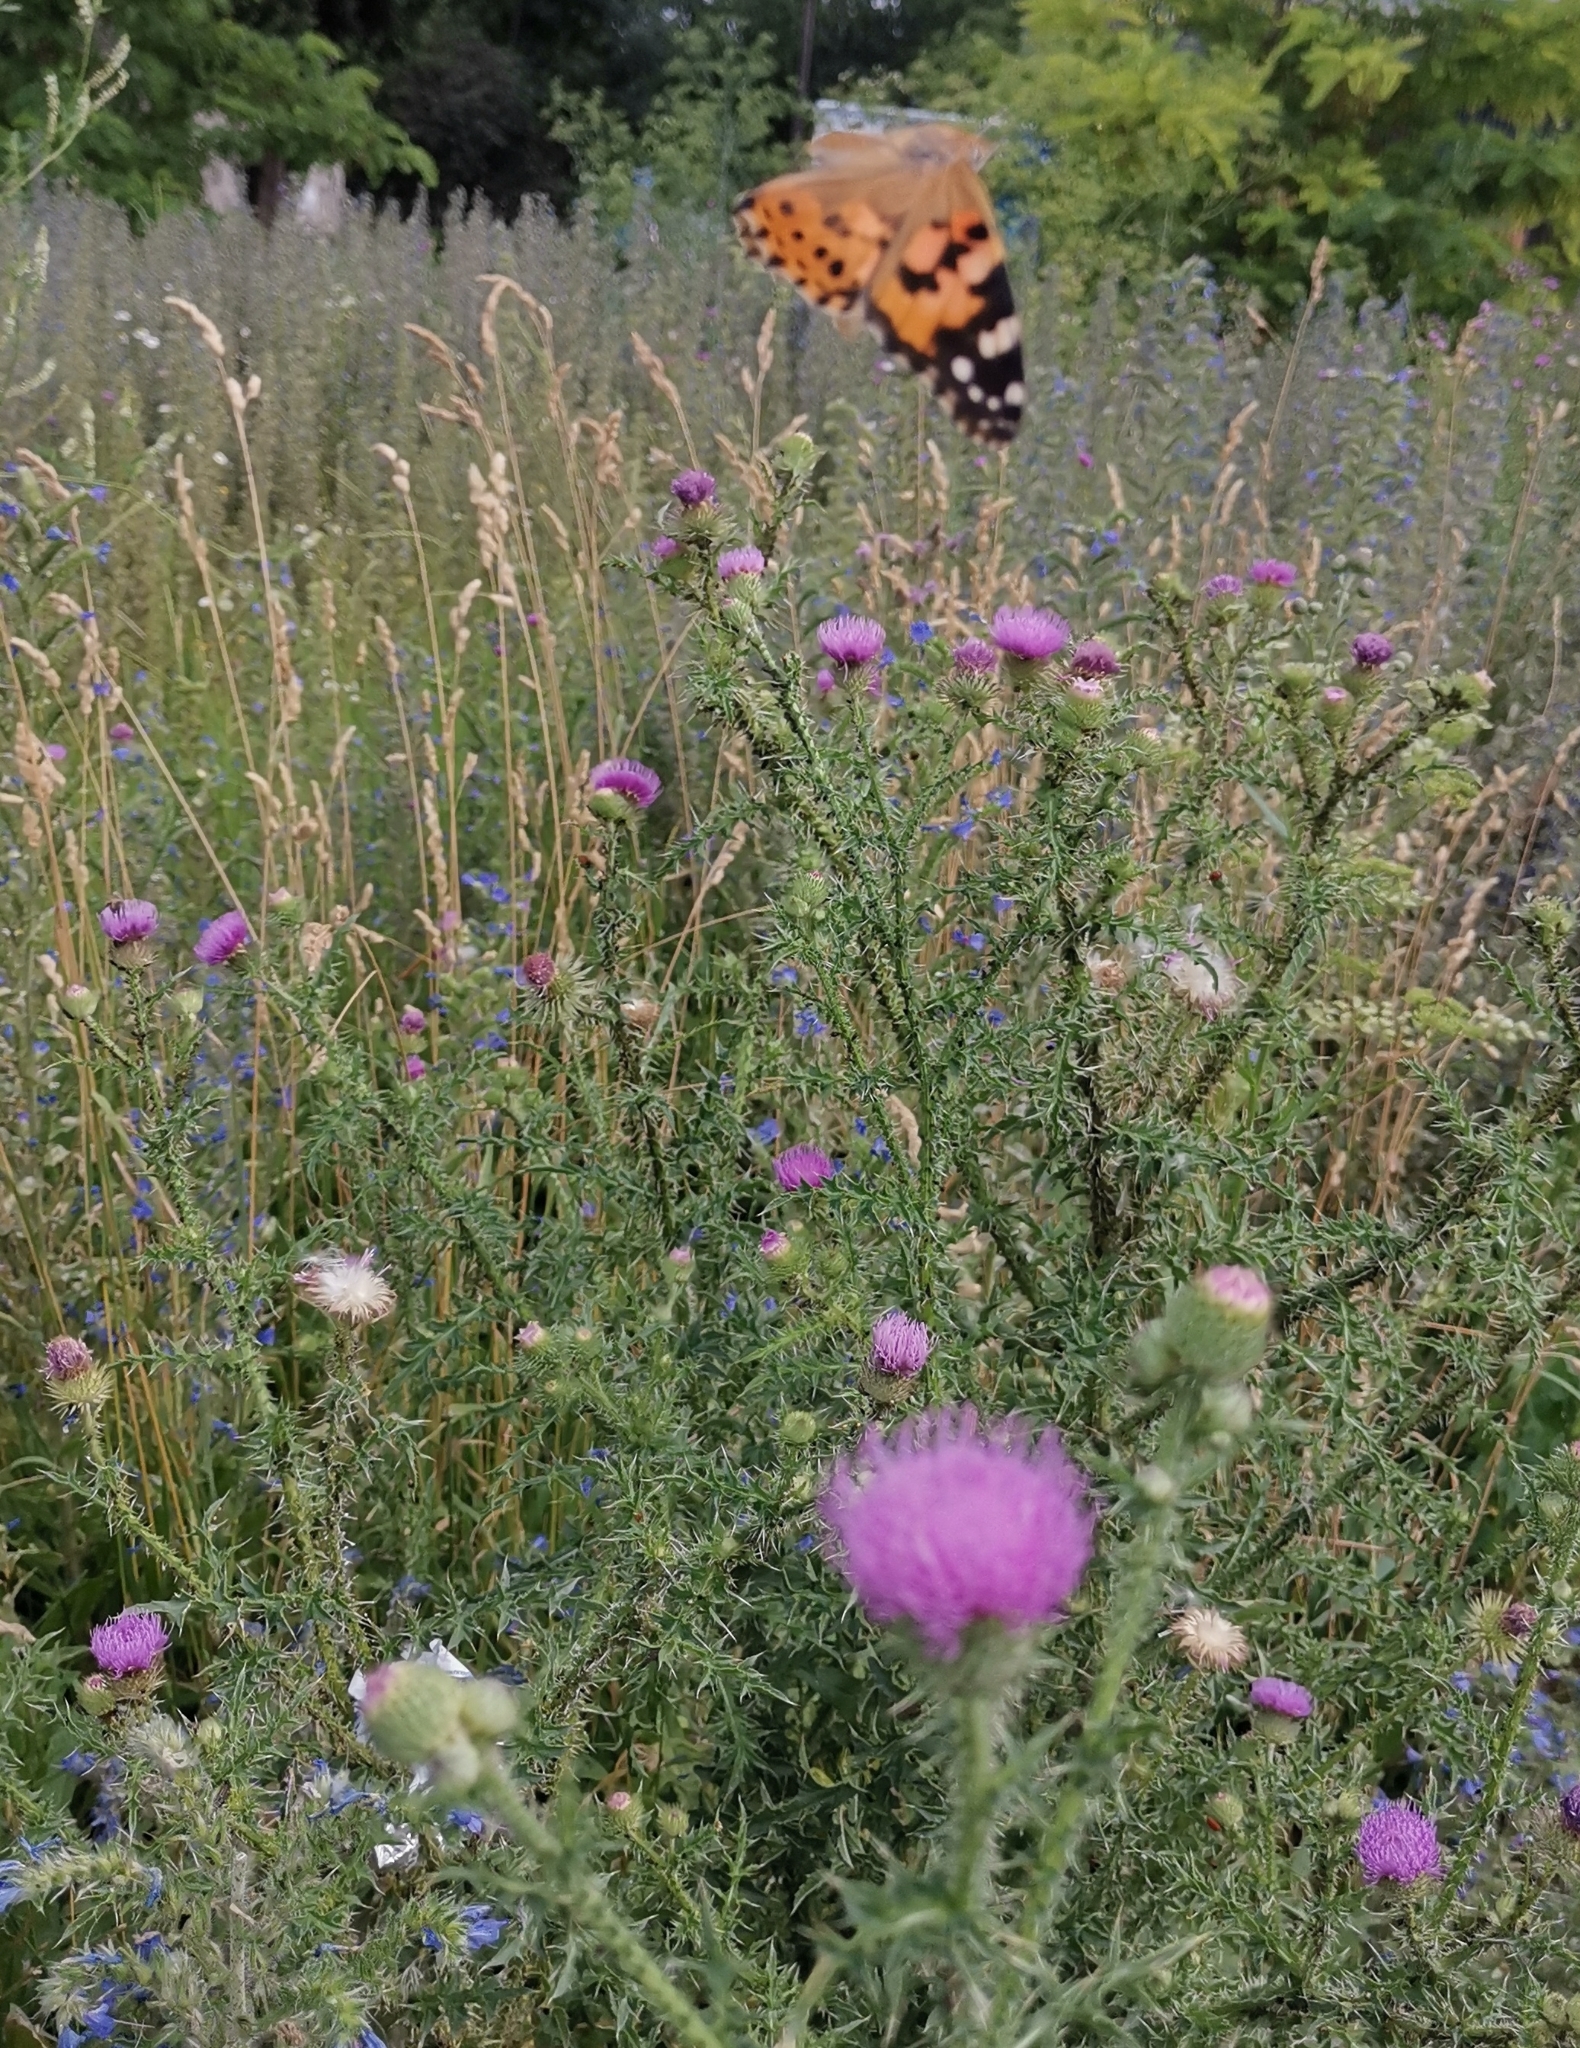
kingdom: Animalia
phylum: Arthropoda
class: Insecta
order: Lepidoptera
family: Nymphalidae
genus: Vanessa
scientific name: Vanessa cardui
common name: Painted lady
